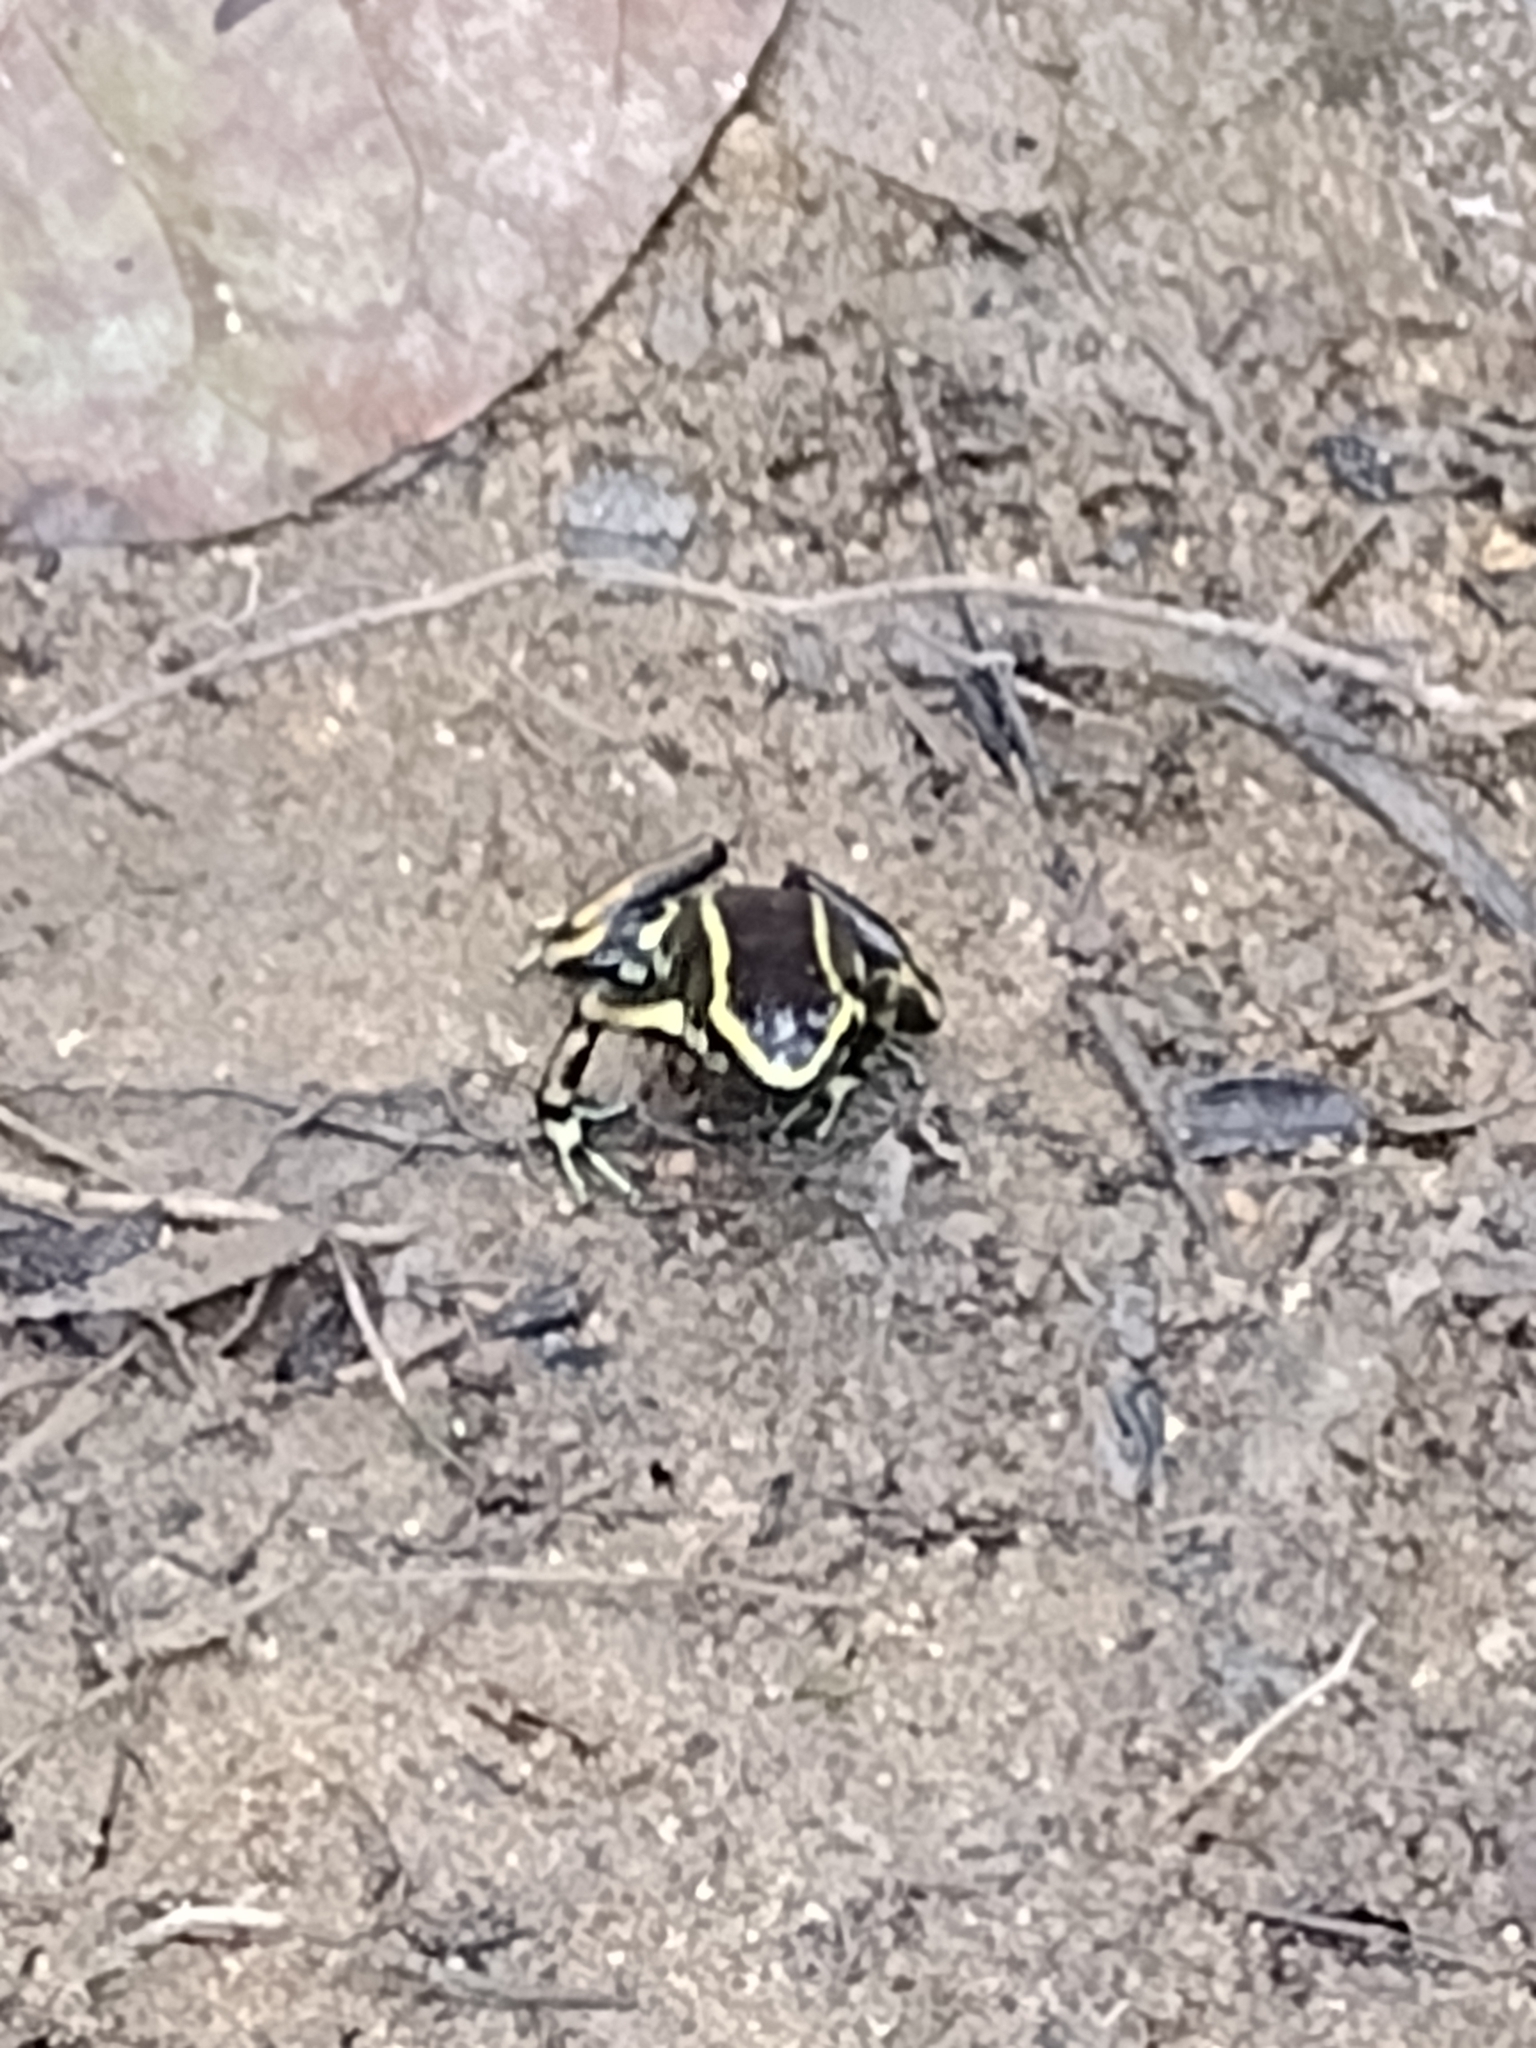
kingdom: Animalia
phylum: Chordata
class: Amphibia
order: Anura
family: Dendrobatidae
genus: Dendrobates
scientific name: Dendrobates truncatus
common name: Yellow-striped poison frog
